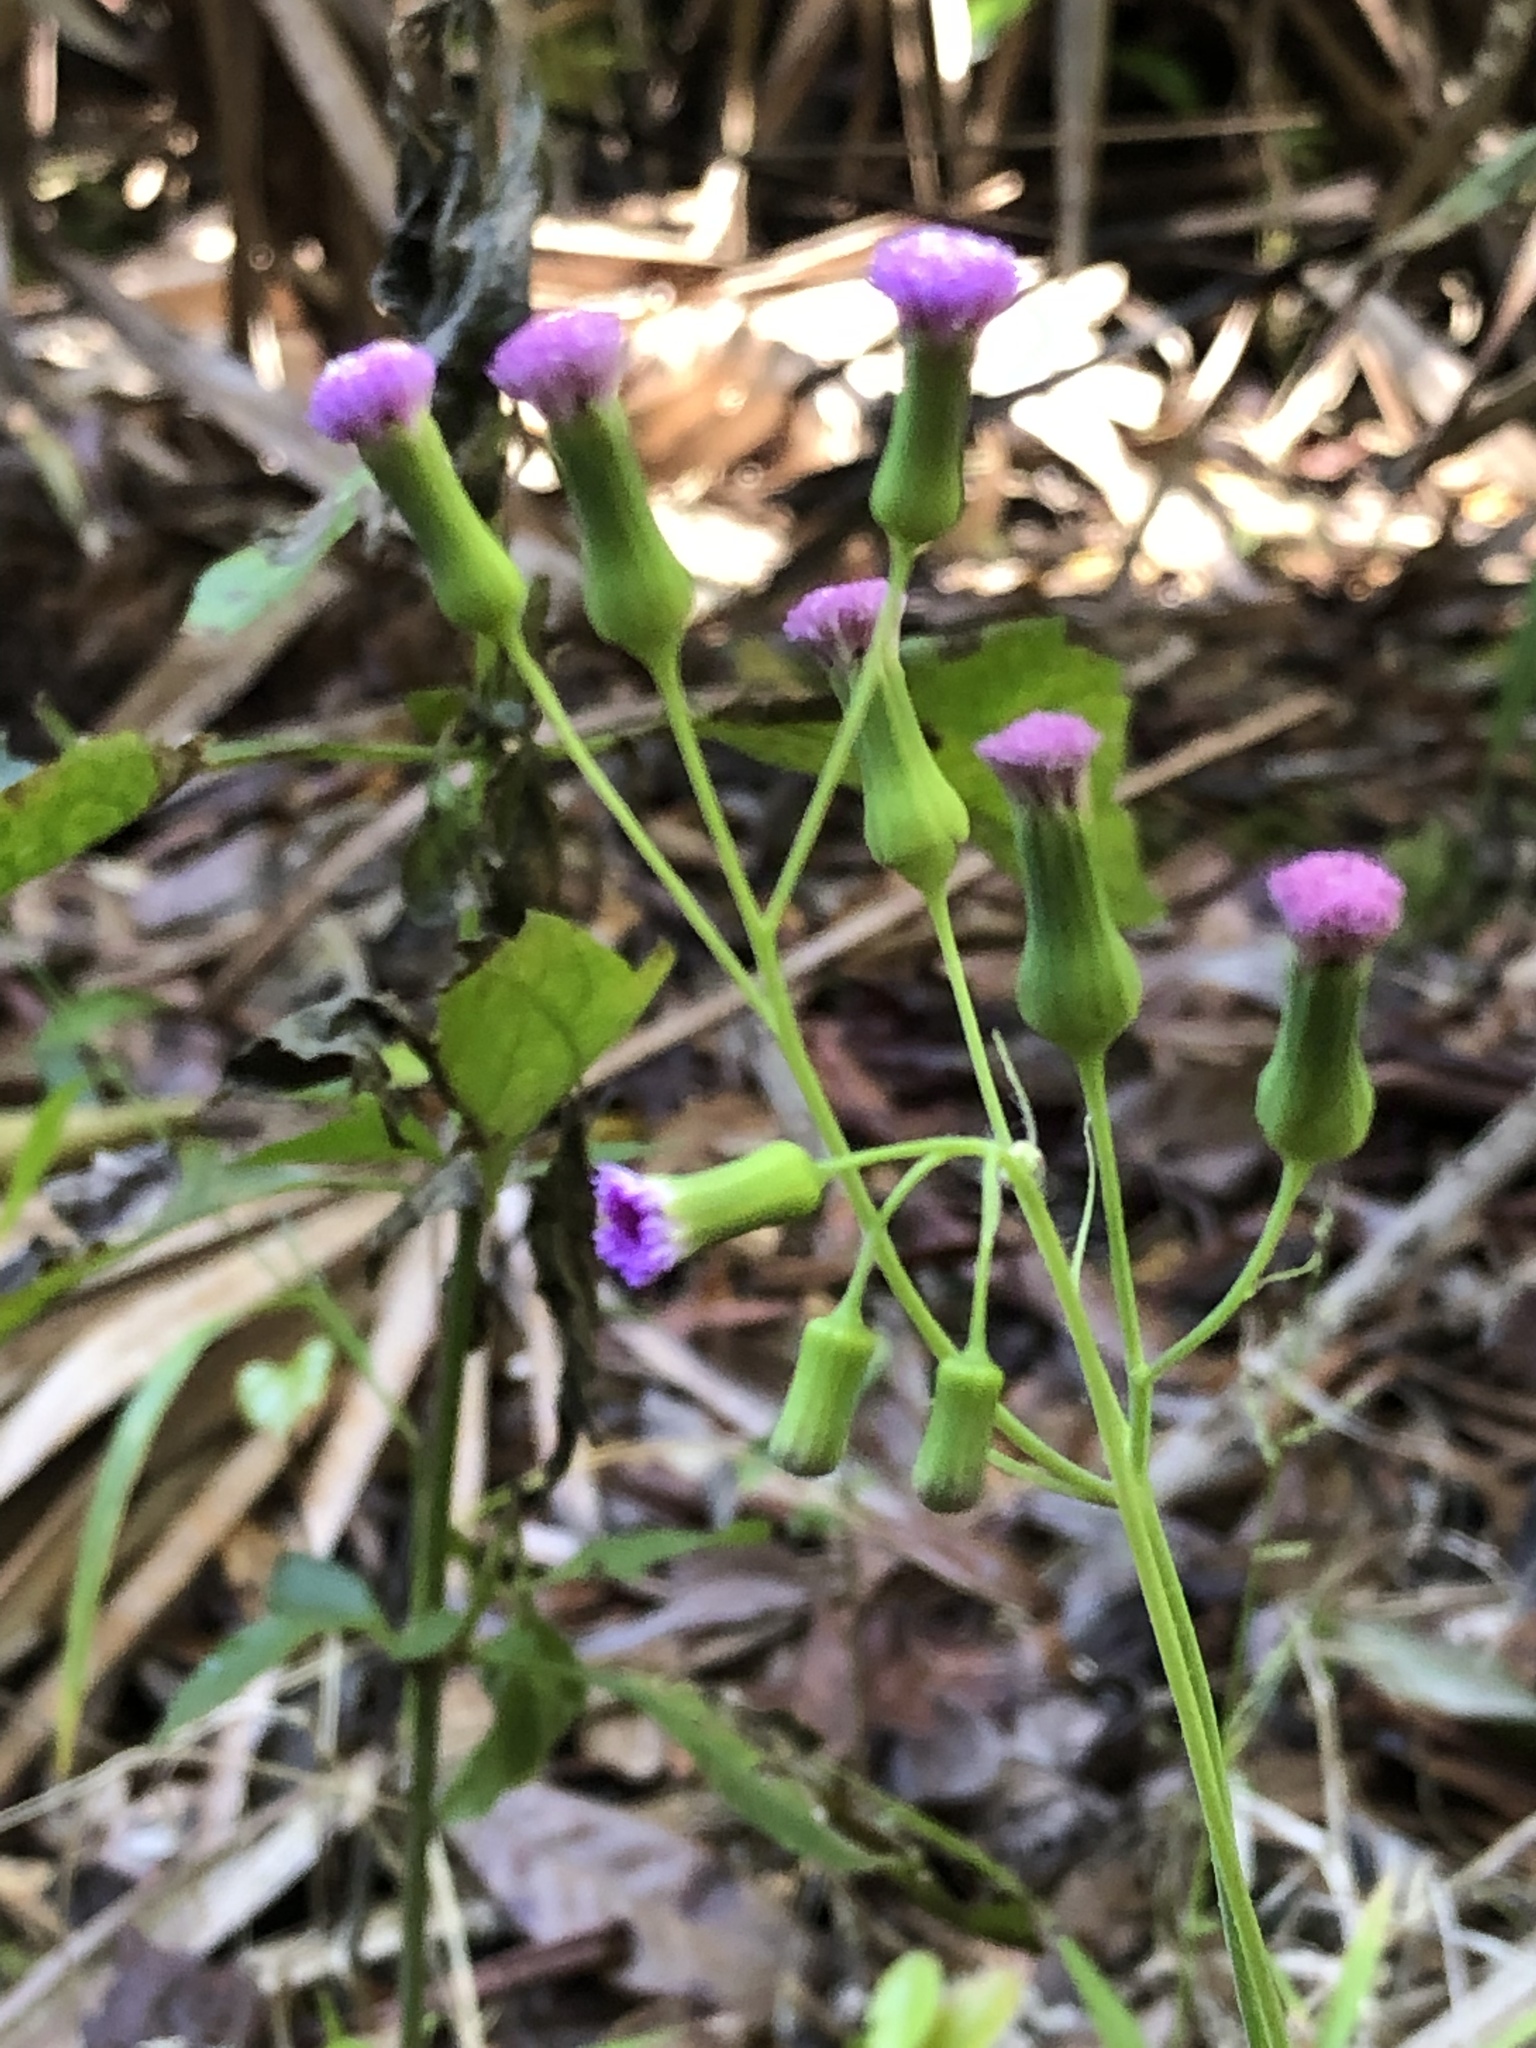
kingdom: Plantae
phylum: Tracheophyta
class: Magnoliopsida
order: Asterales
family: Asteraceae
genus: Emilia
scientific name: Emilia sonchifolia
